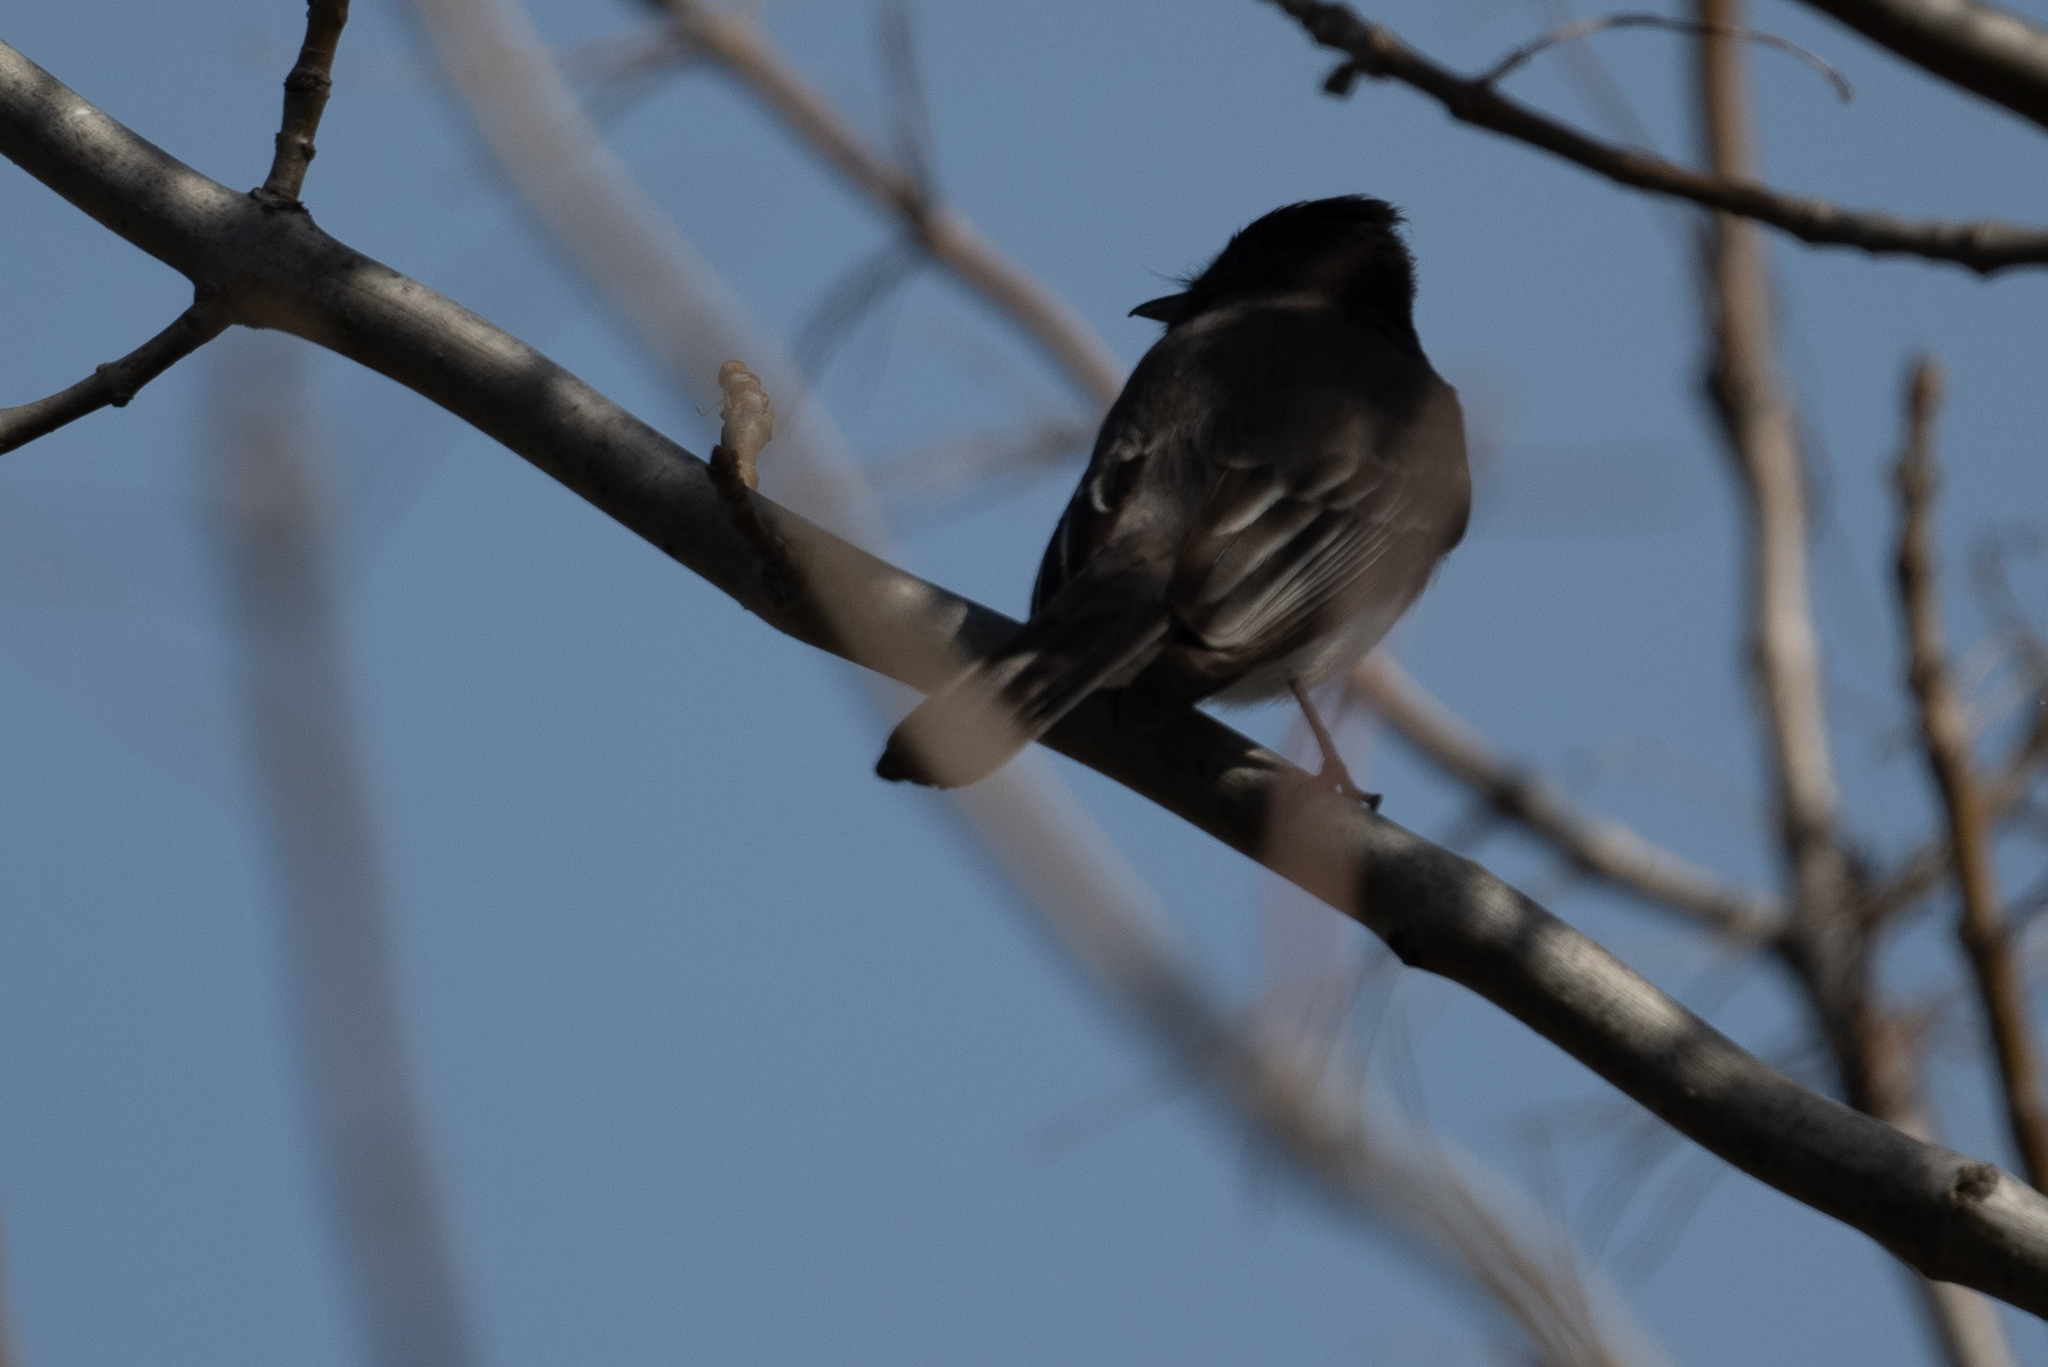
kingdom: Animalia
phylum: Chordata
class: Aves
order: Passeriformes
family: Tyrannidae
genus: Sayornis
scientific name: Sayornis nigricans
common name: Black phoebe
